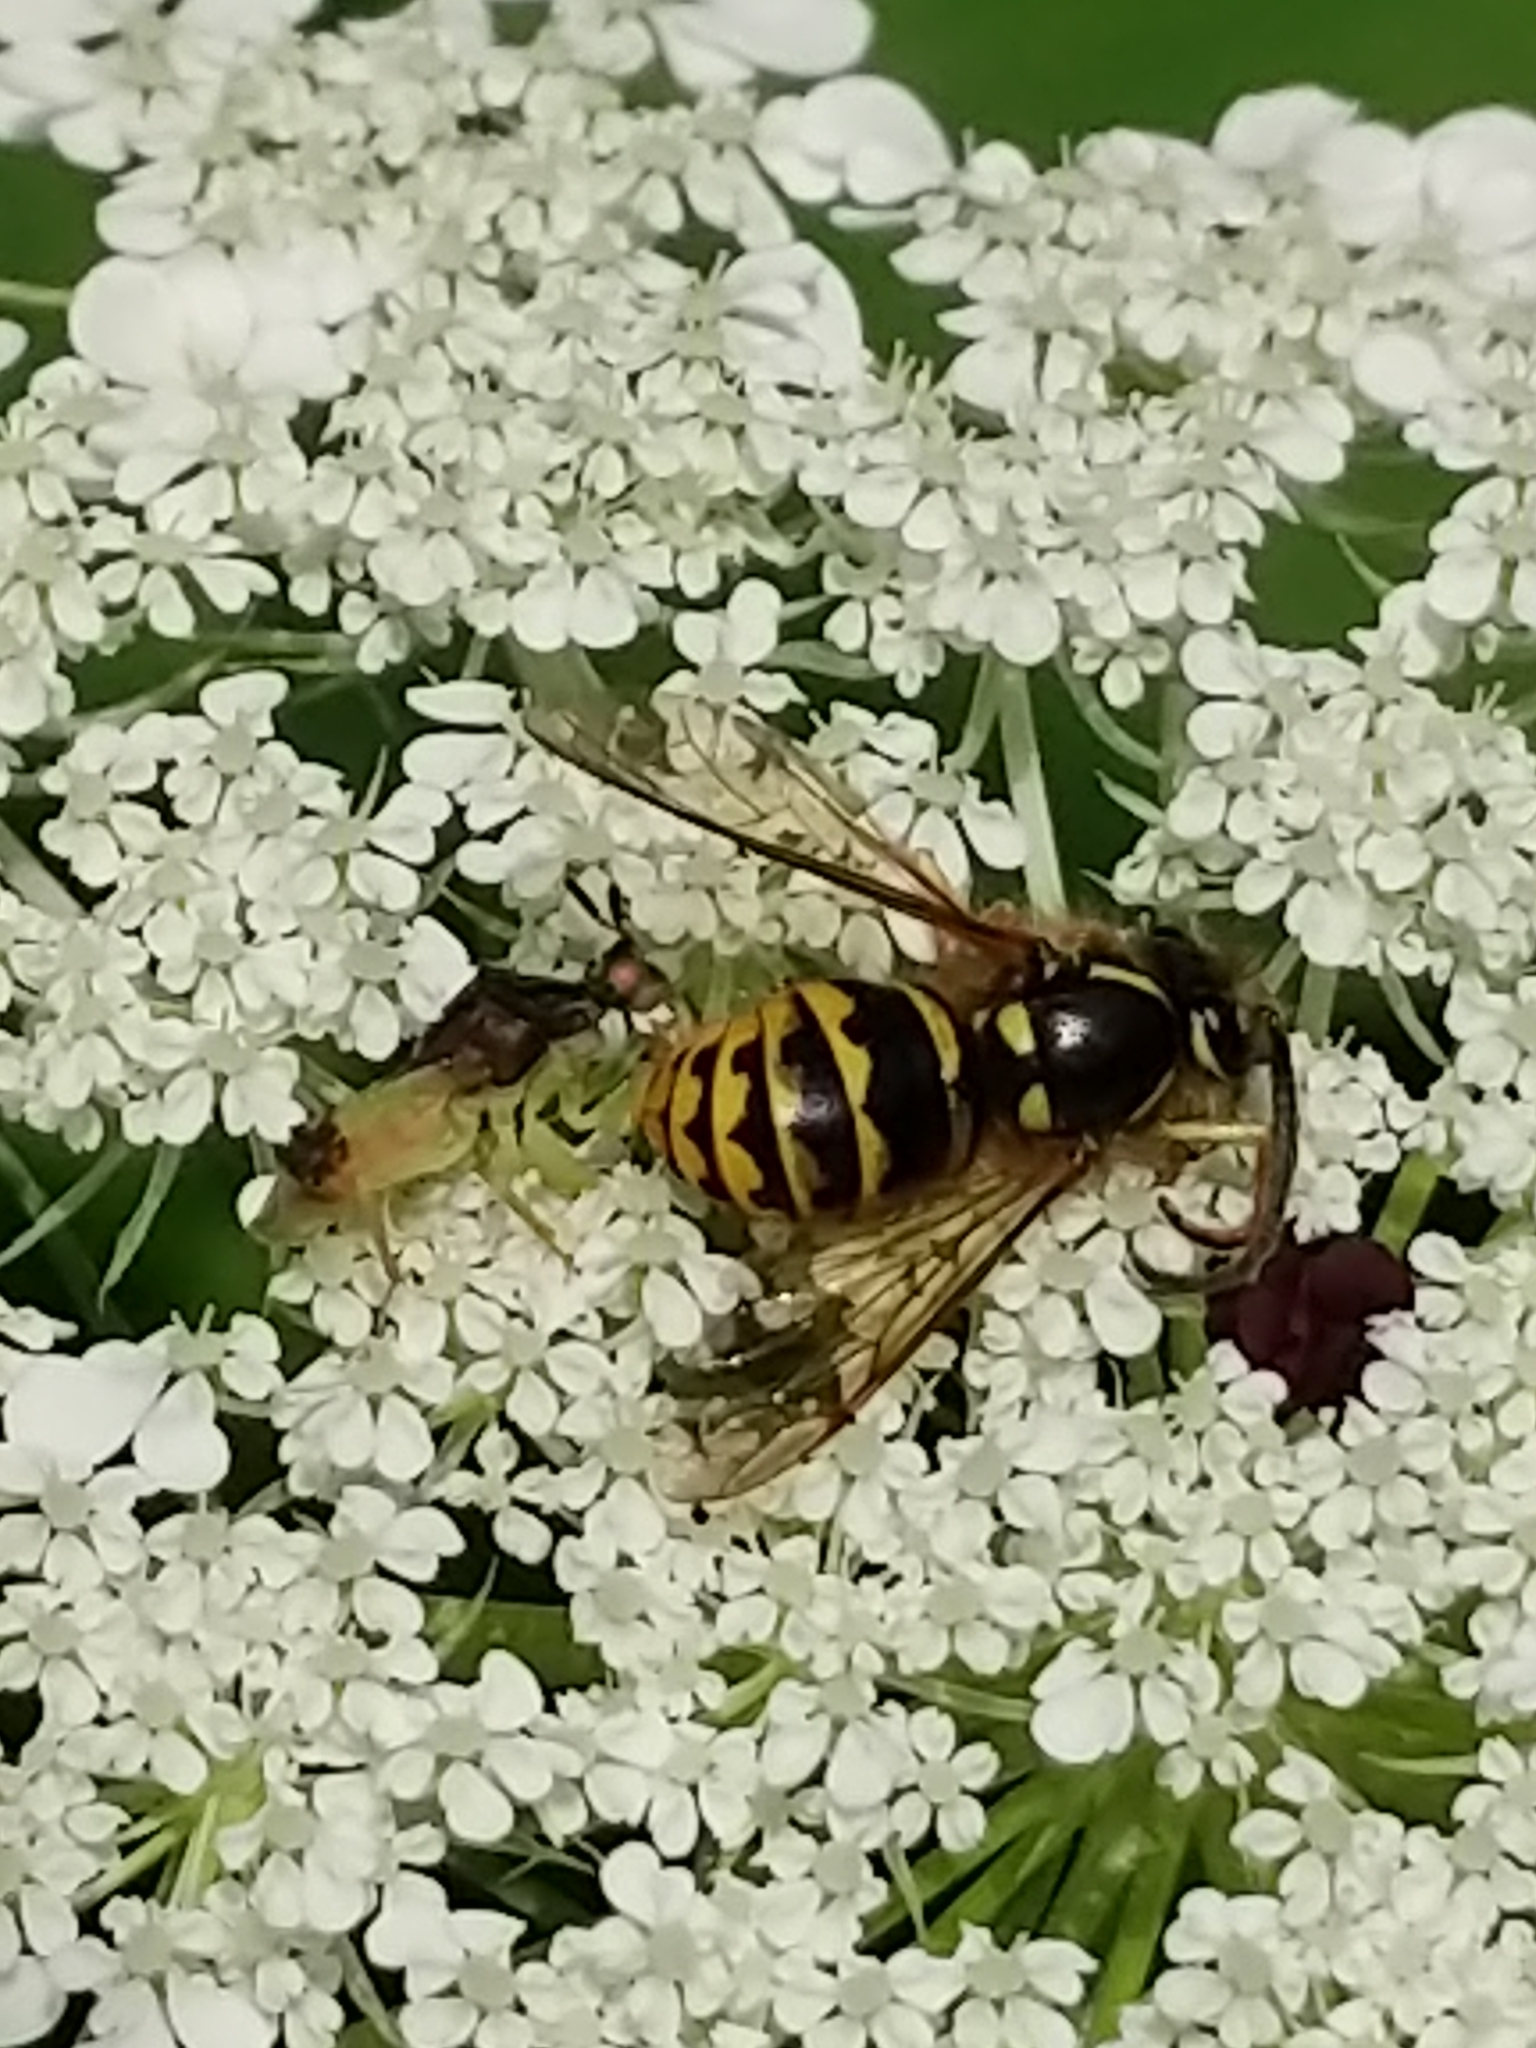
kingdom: Animalia
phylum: Arthropoda
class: Insecta
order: Hymenoptera
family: Vespidae
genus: Dolichovespula
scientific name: Dolichovespula arenaria
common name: Aerial yellowjacket
